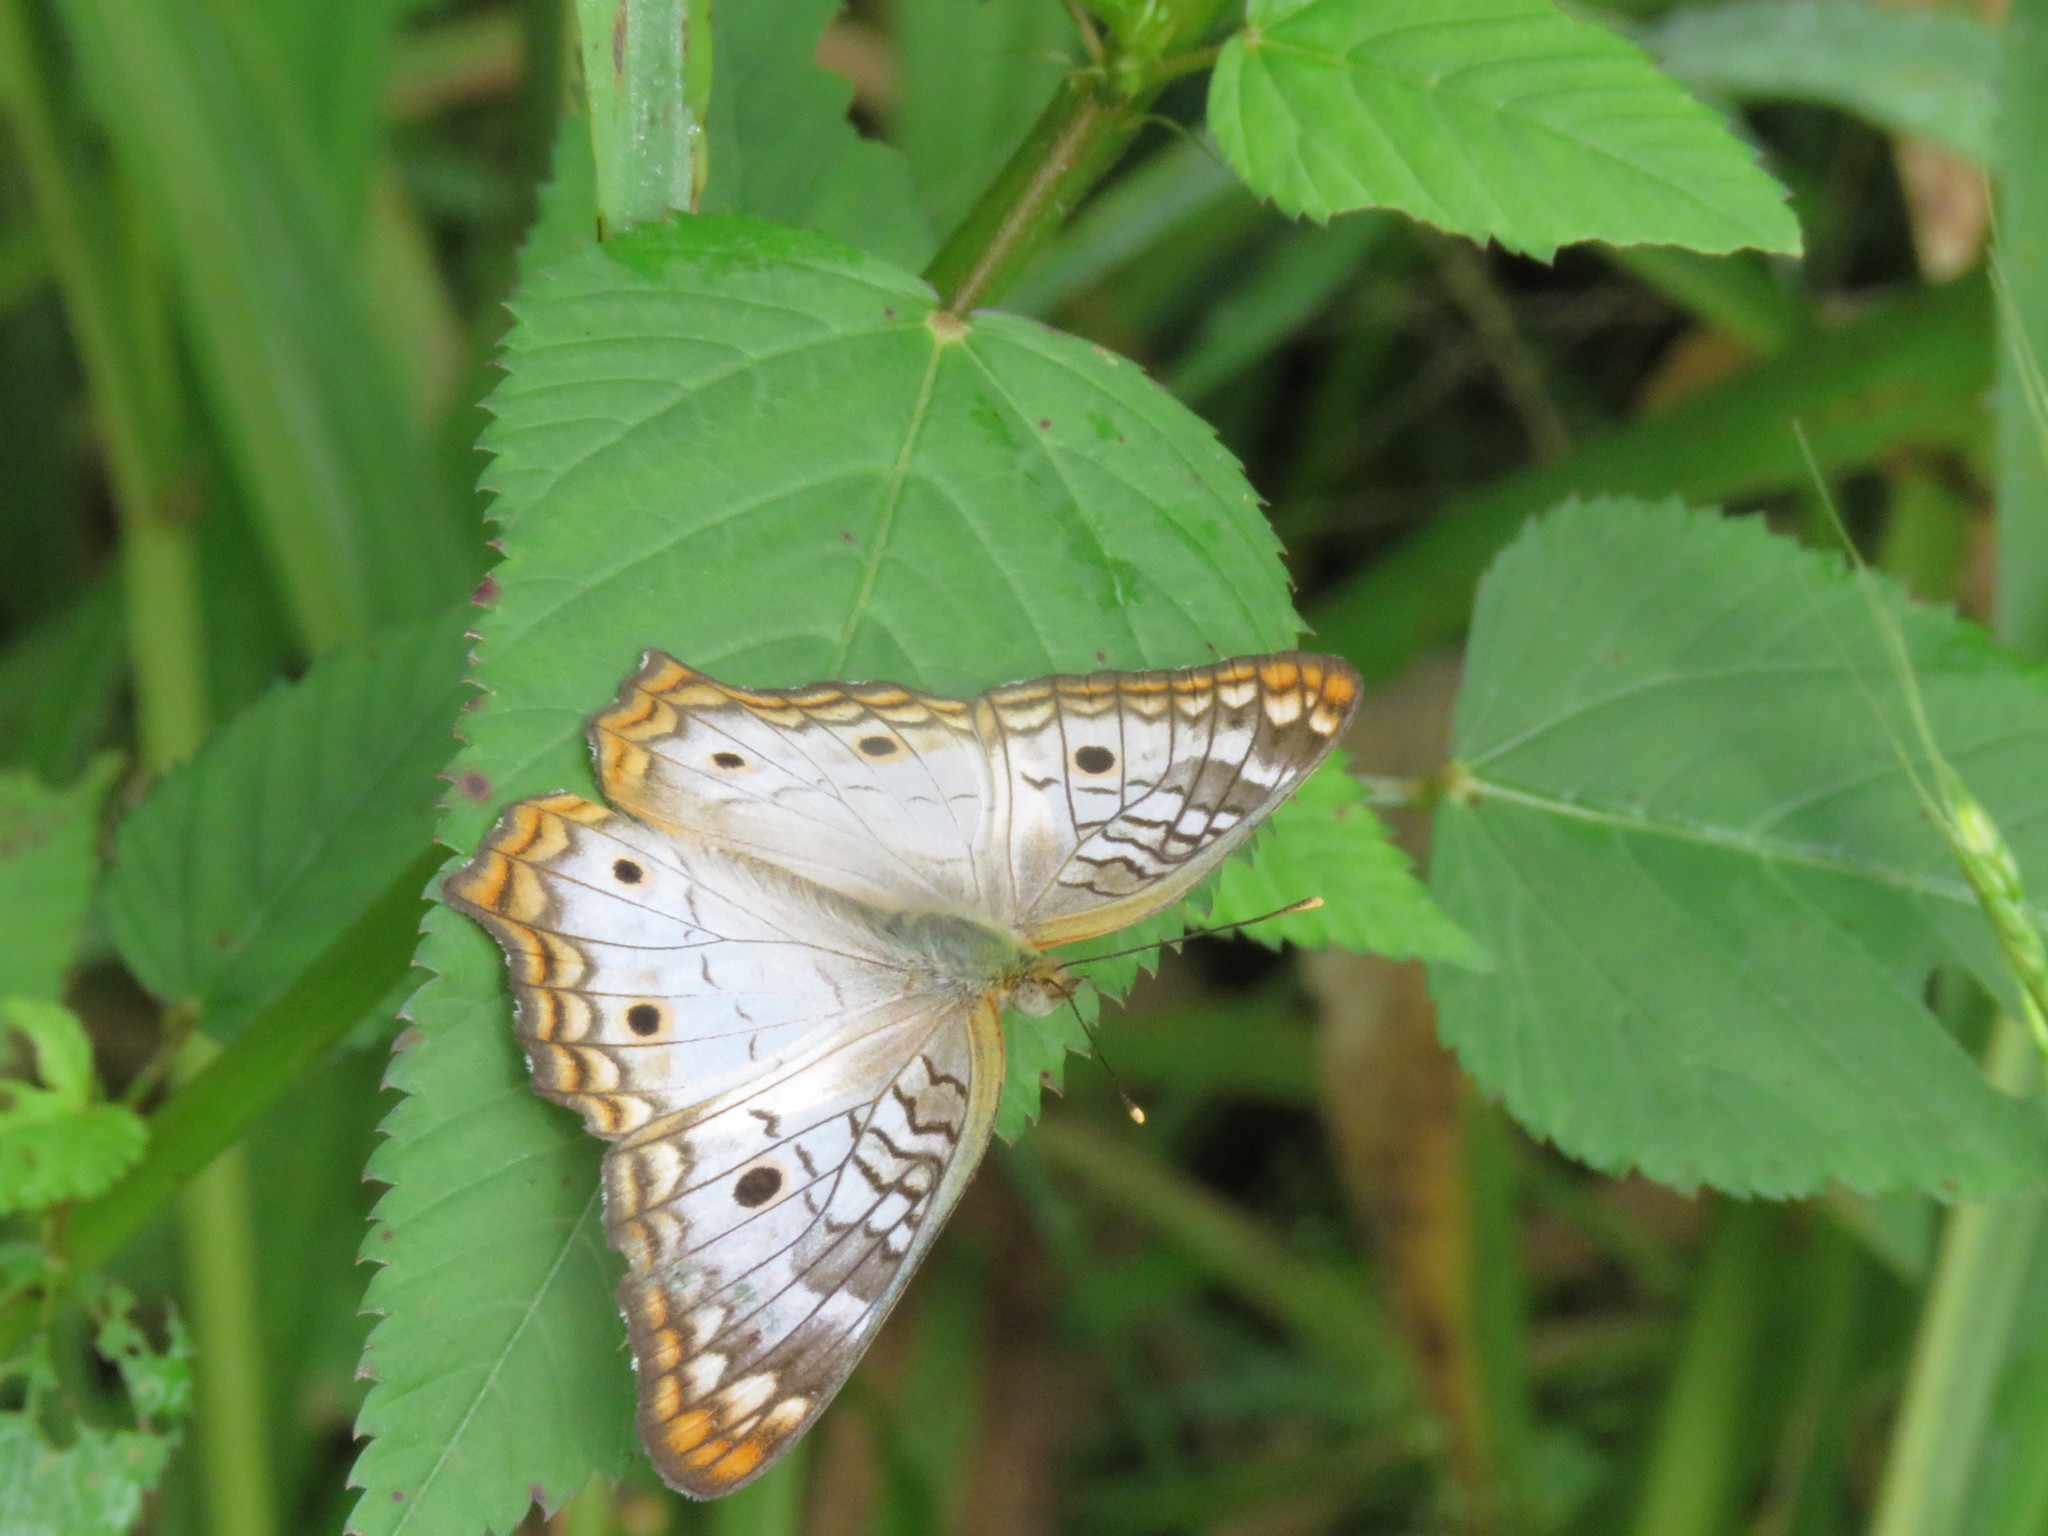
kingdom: Animalia
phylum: Arthropoda
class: Insecta
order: Lepidoptera
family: Nymphalidae
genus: Anartia
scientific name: Anartia jatrophae
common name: White peacock
